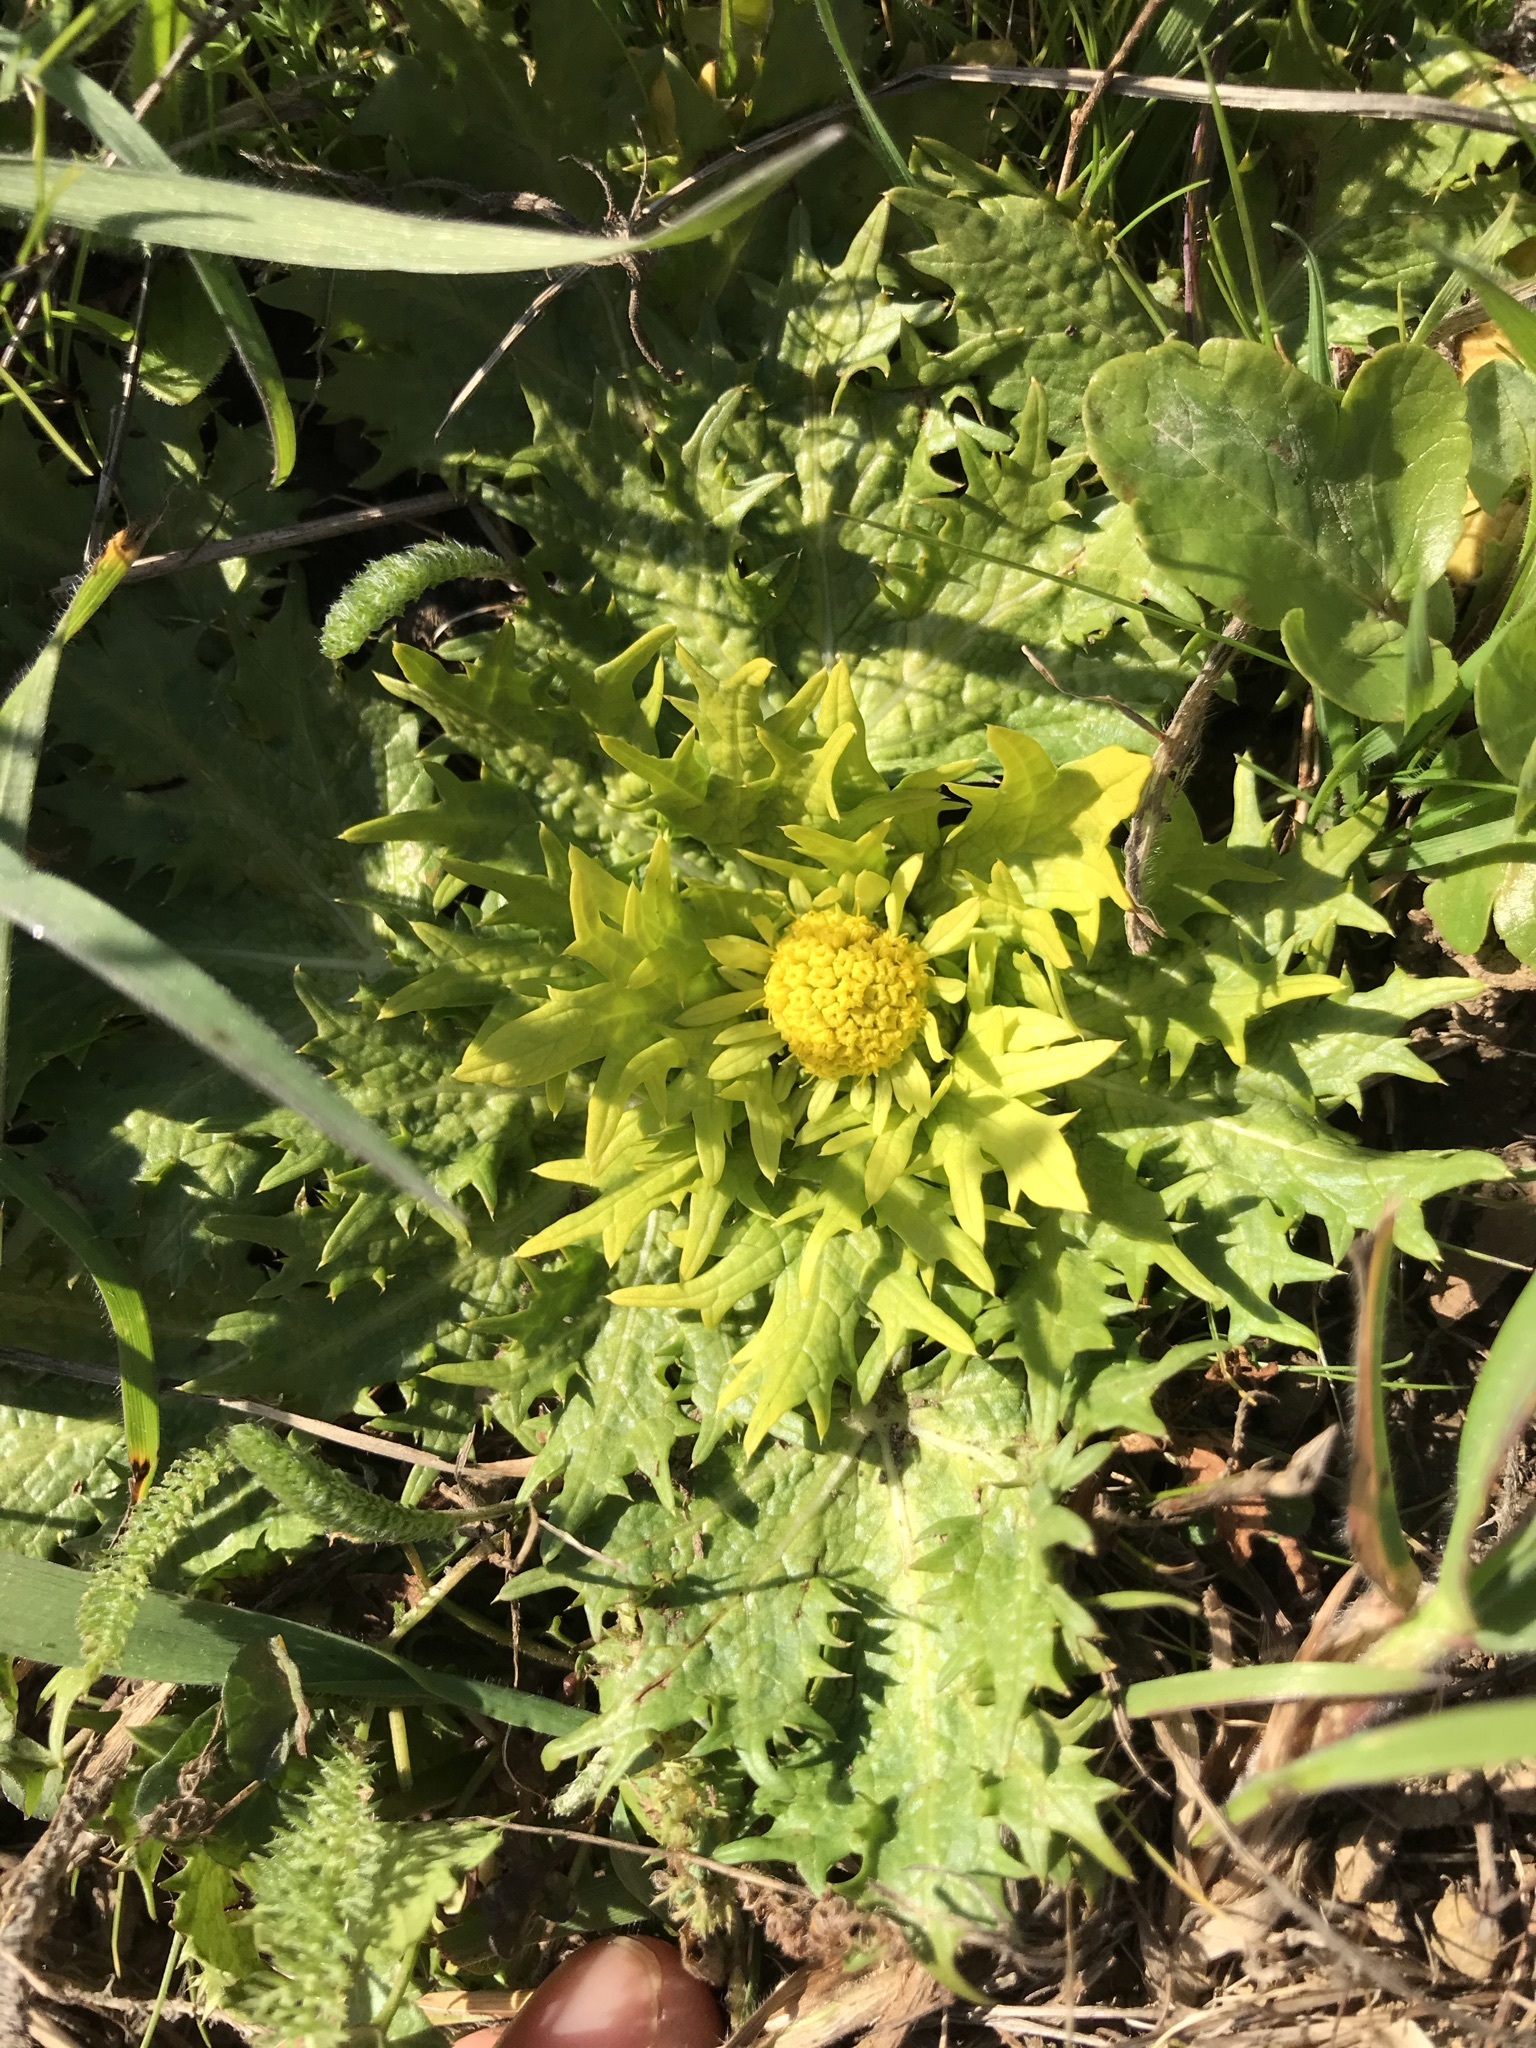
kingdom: Plantae
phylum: Tracheophyta
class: Magnoliopsida
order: Apiales
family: Apiaceae
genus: Sanicula
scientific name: Sanicula arctopoides
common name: Footsteps-of-spring
